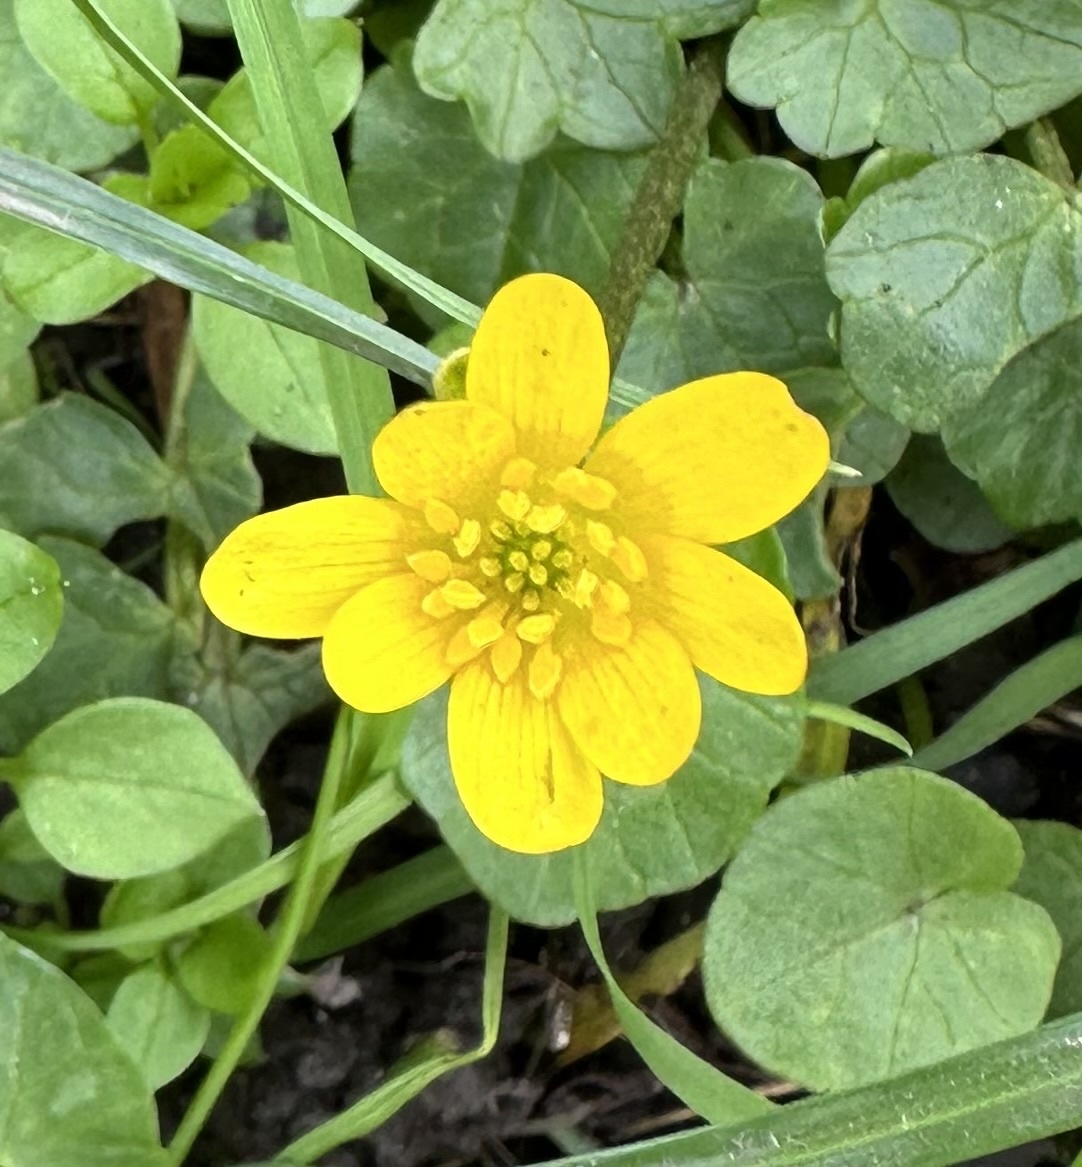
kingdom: Plantae
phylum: Tracheophyta
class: Magnoliopsida
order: Ranunculales
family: Ranunculaceae
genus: Ficaria
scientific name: Ficaria verna
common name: Lesser celandine
